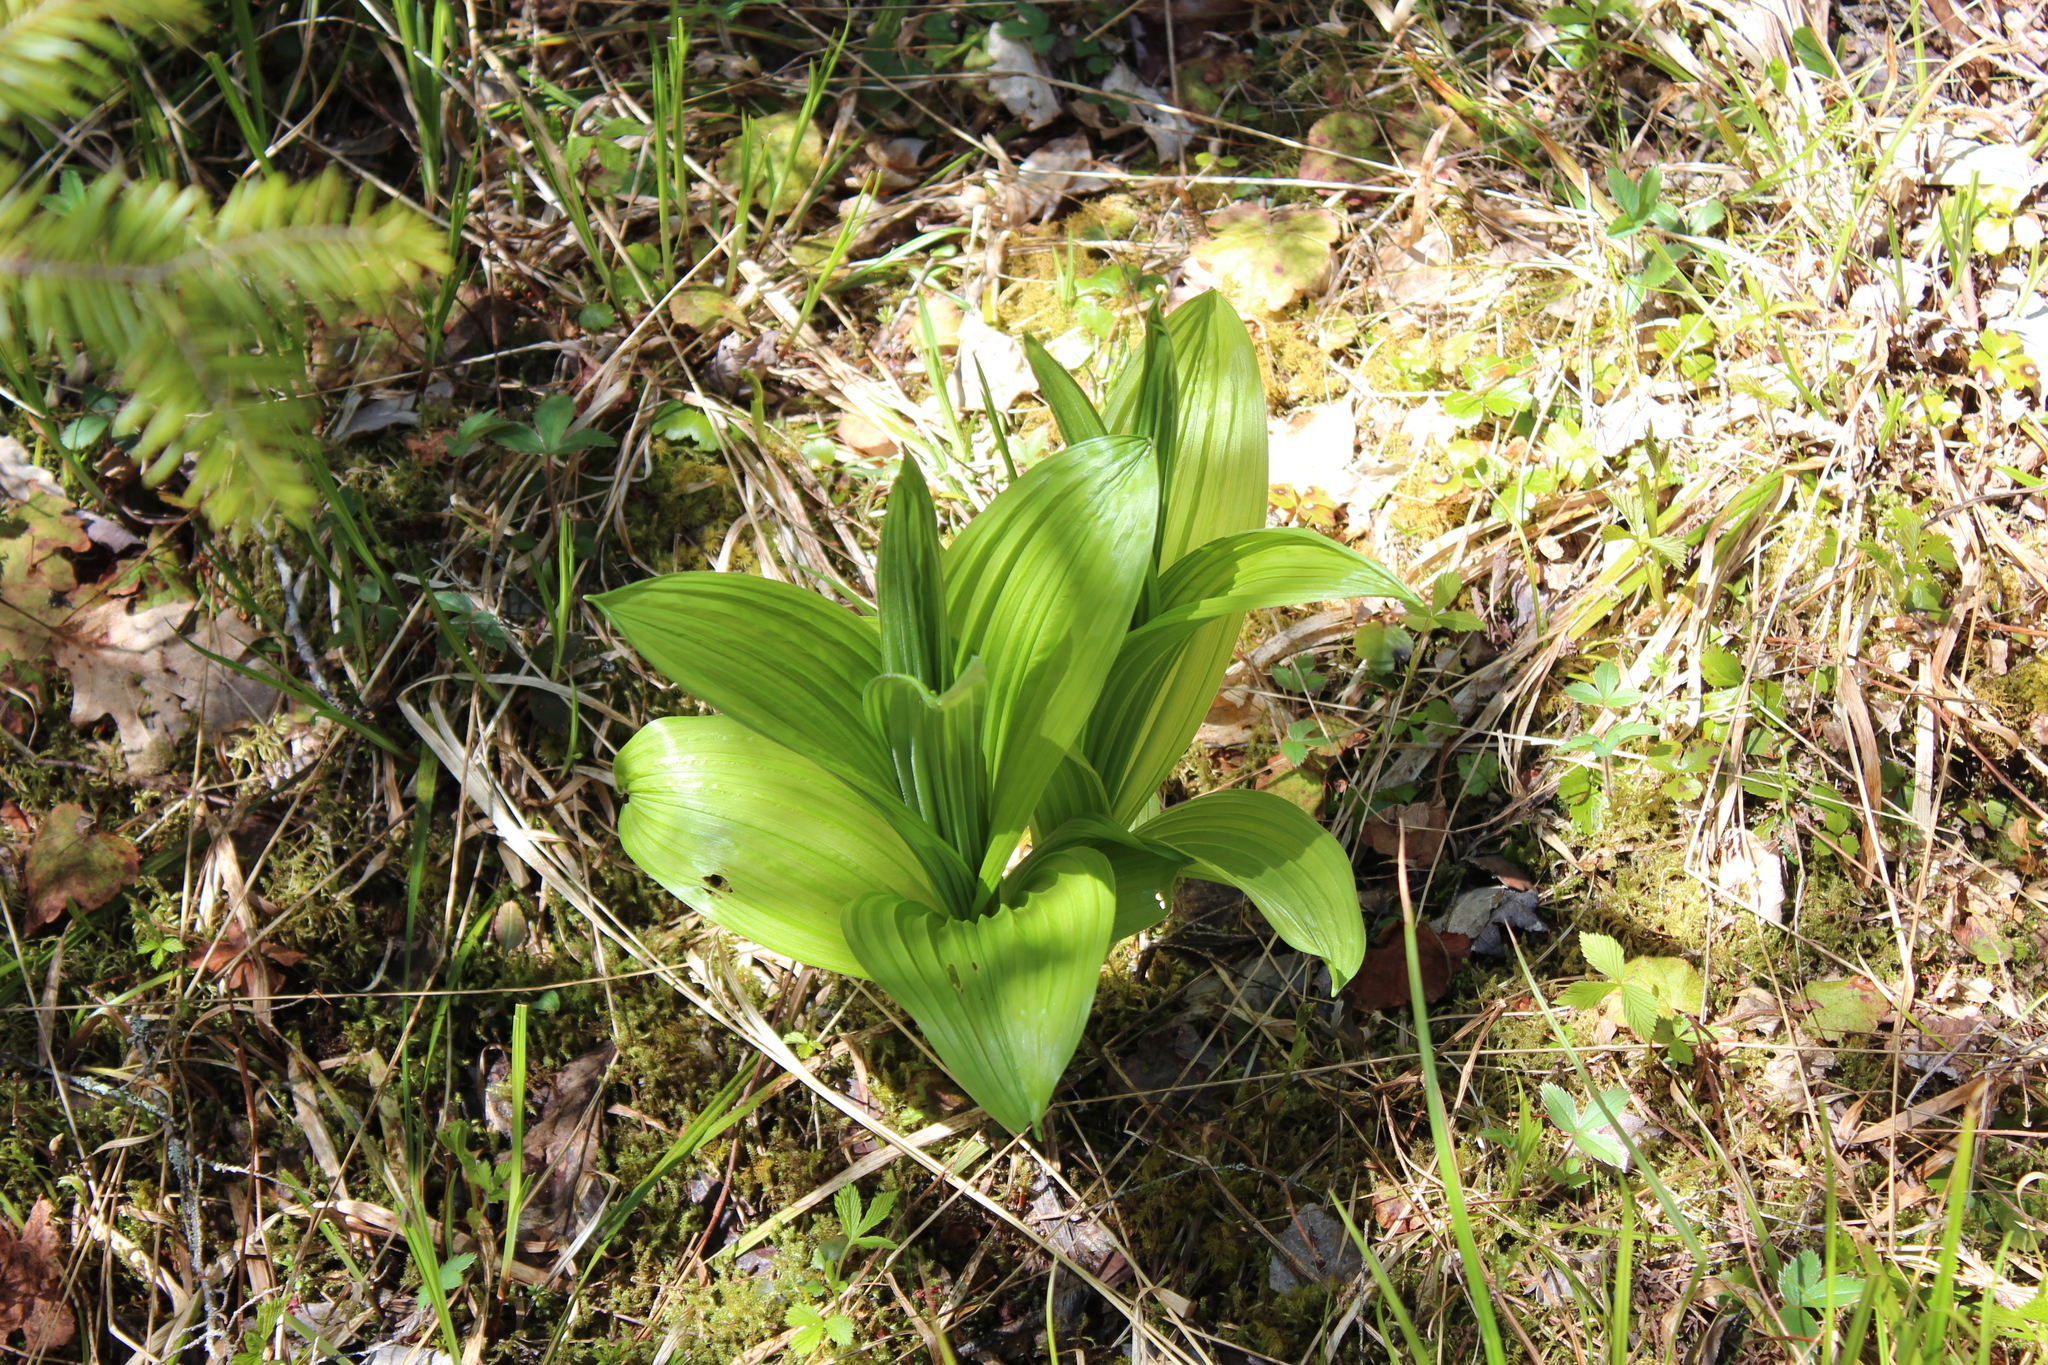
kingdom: Plantae
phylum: Tracheophyta
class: Liliopsida
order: Liliales
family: Melanthiaceae
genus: Veratrum
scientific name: Veratrum viride
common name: American false hellebore
